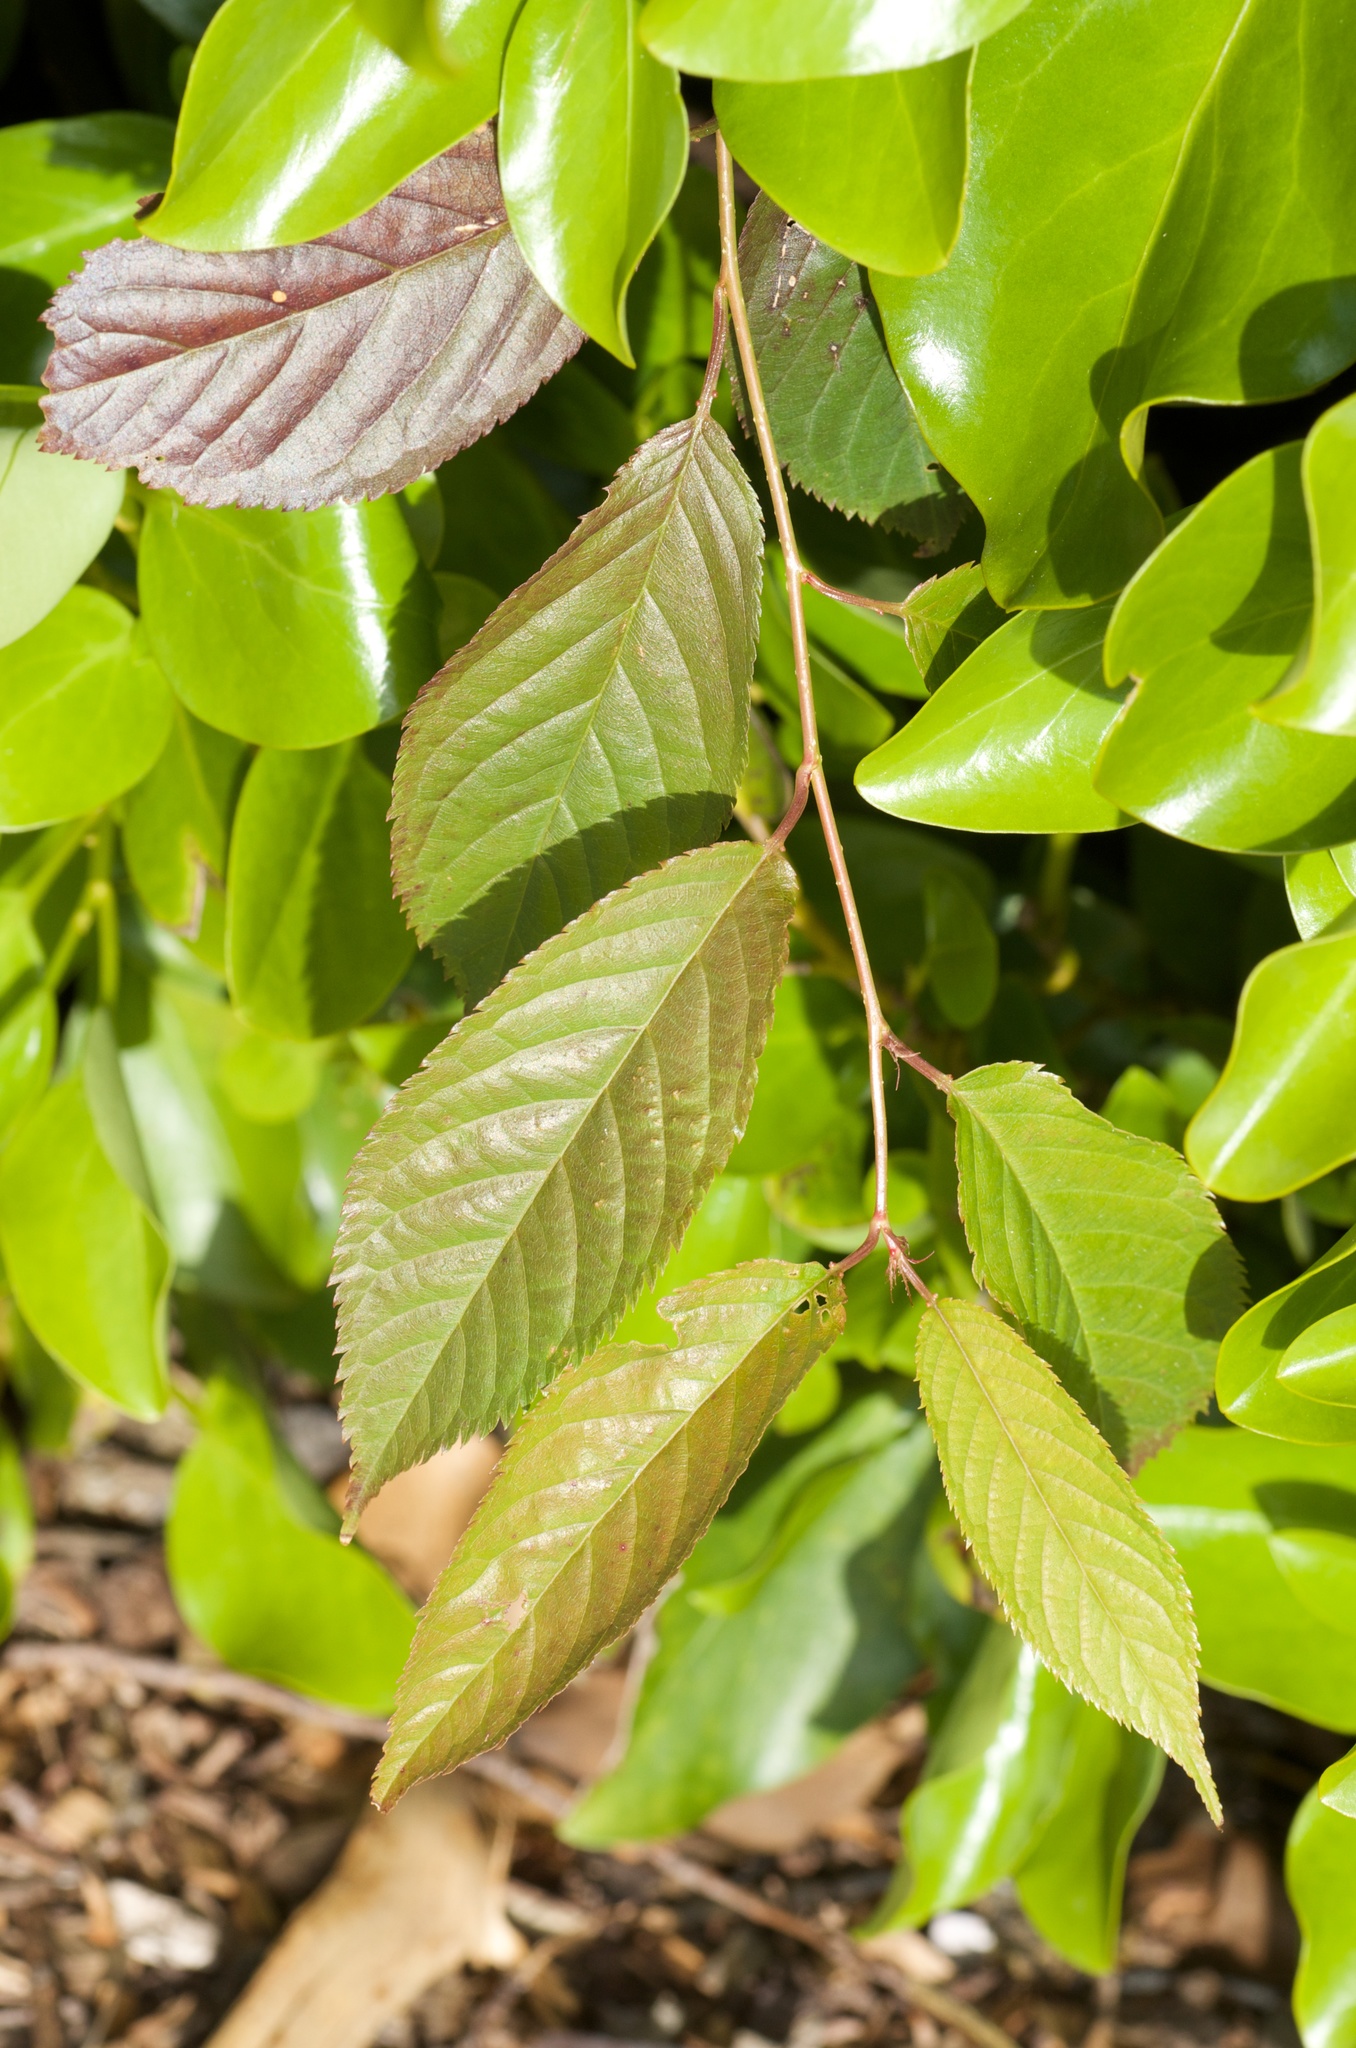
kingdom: Plantae
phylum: Tracheophyta
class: Magnoliopsida
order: Rosales
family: Rosaceae
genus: Prunus
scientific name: Prunus campanulata
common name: Taiwan flowering cherry
